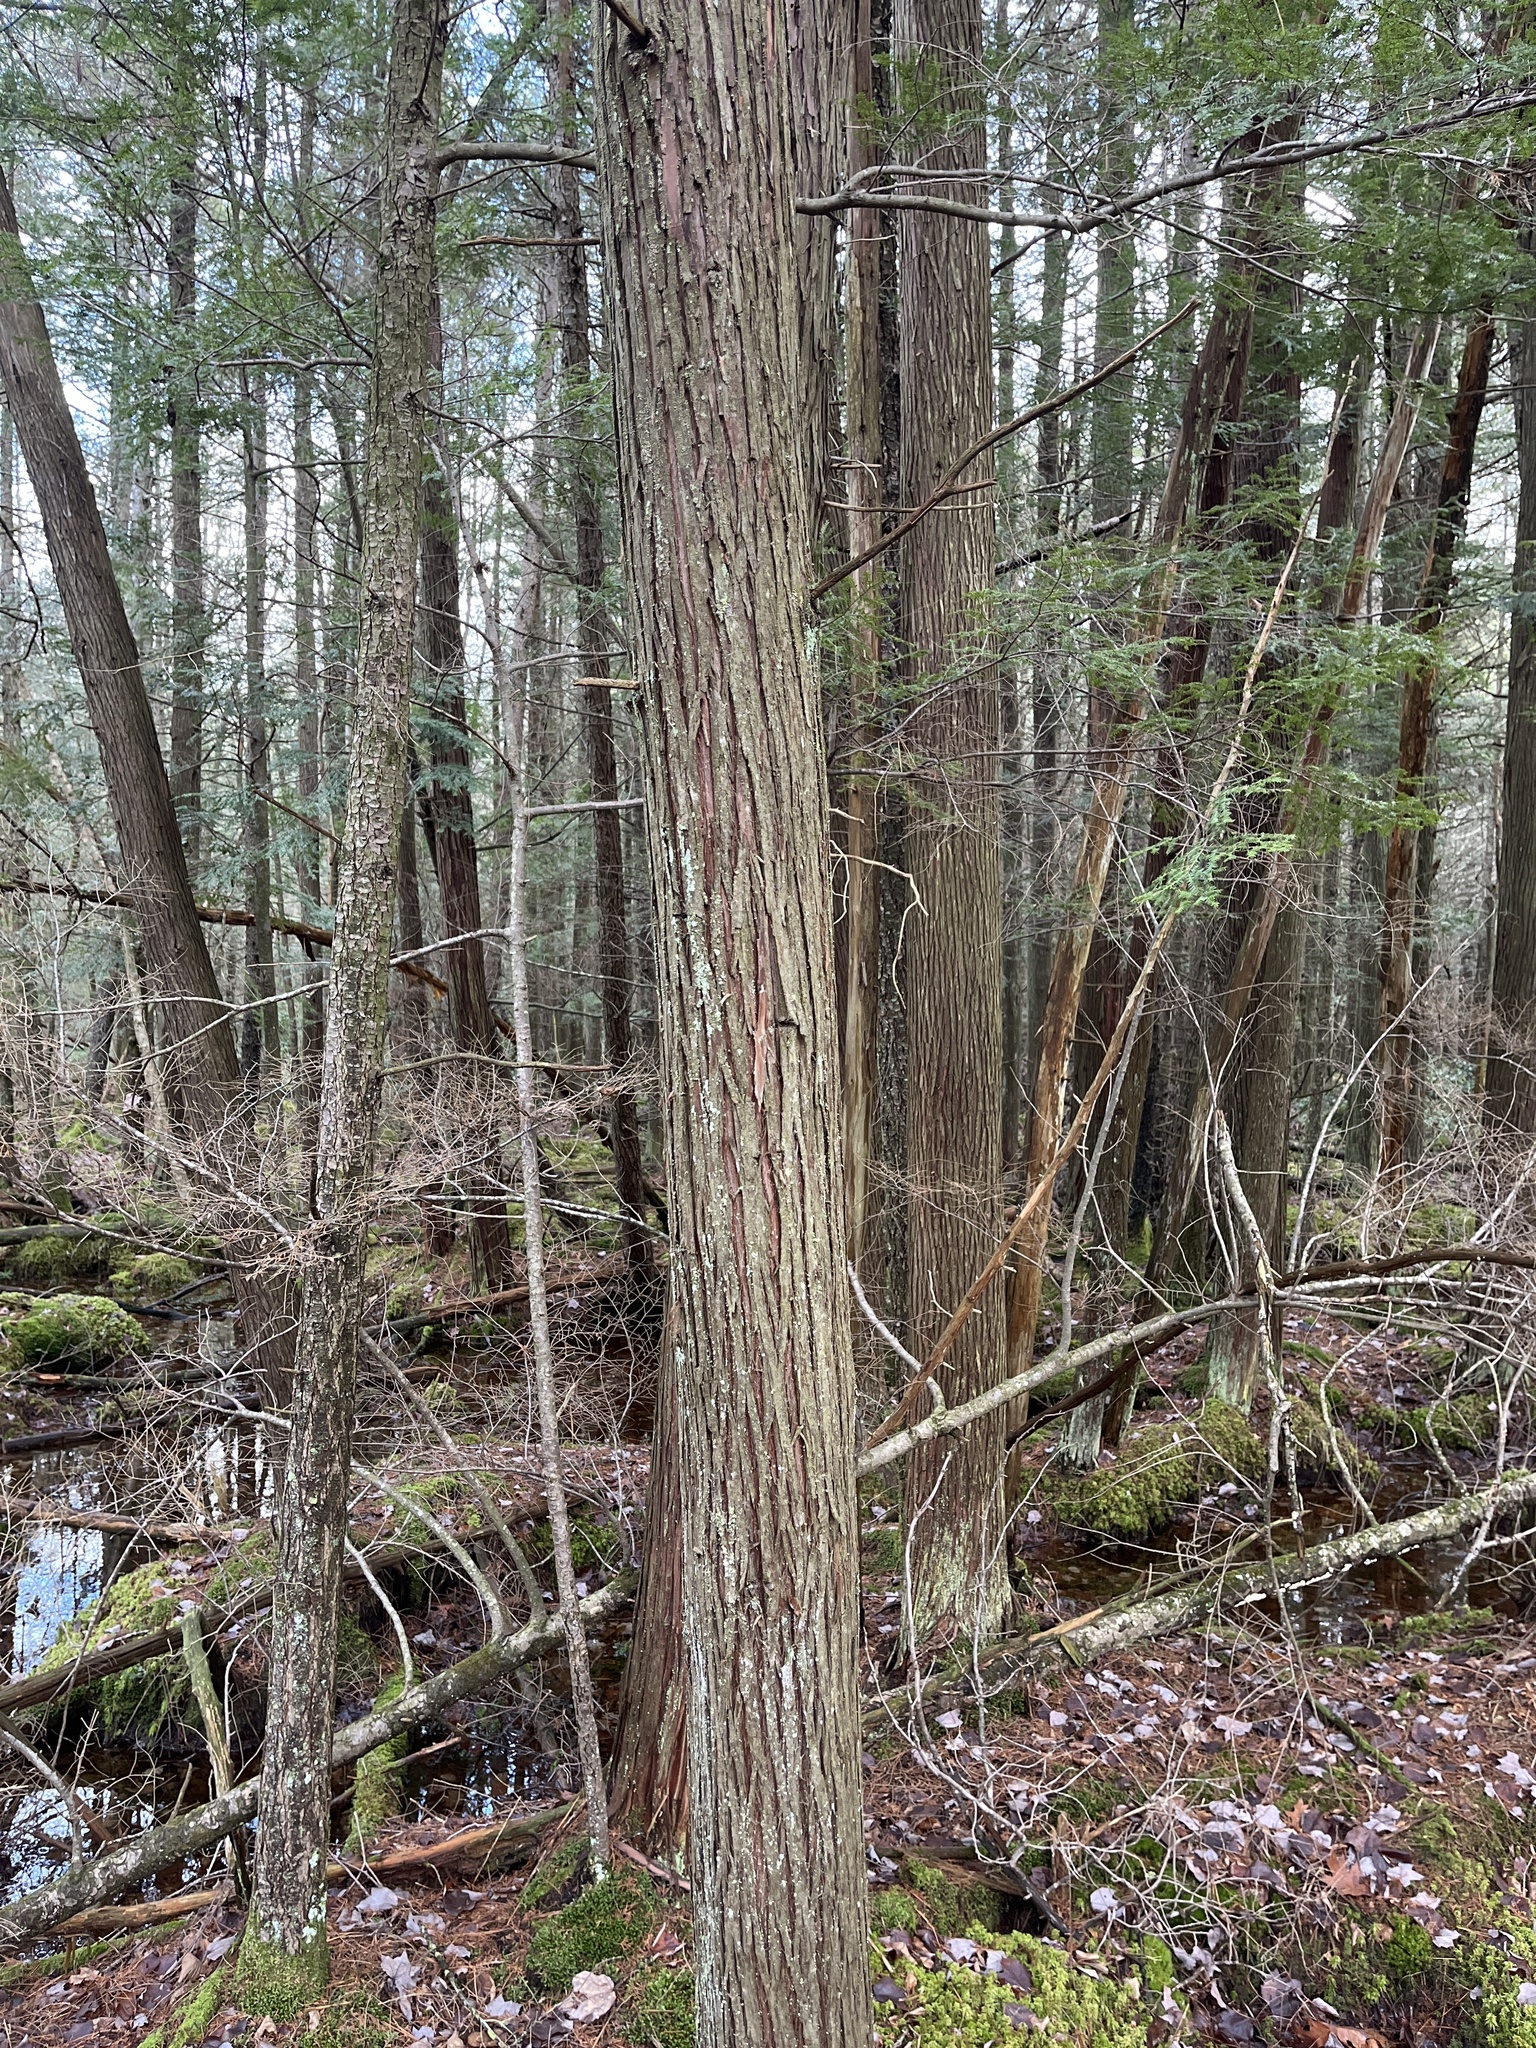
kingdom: Plantae
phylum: Tracheophyta
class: Pinopsida
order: Pinales
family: Cupressaceae
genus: Chamaecyparis
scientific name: Chamaecyparis thyoides
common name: Atlantic white cedar
